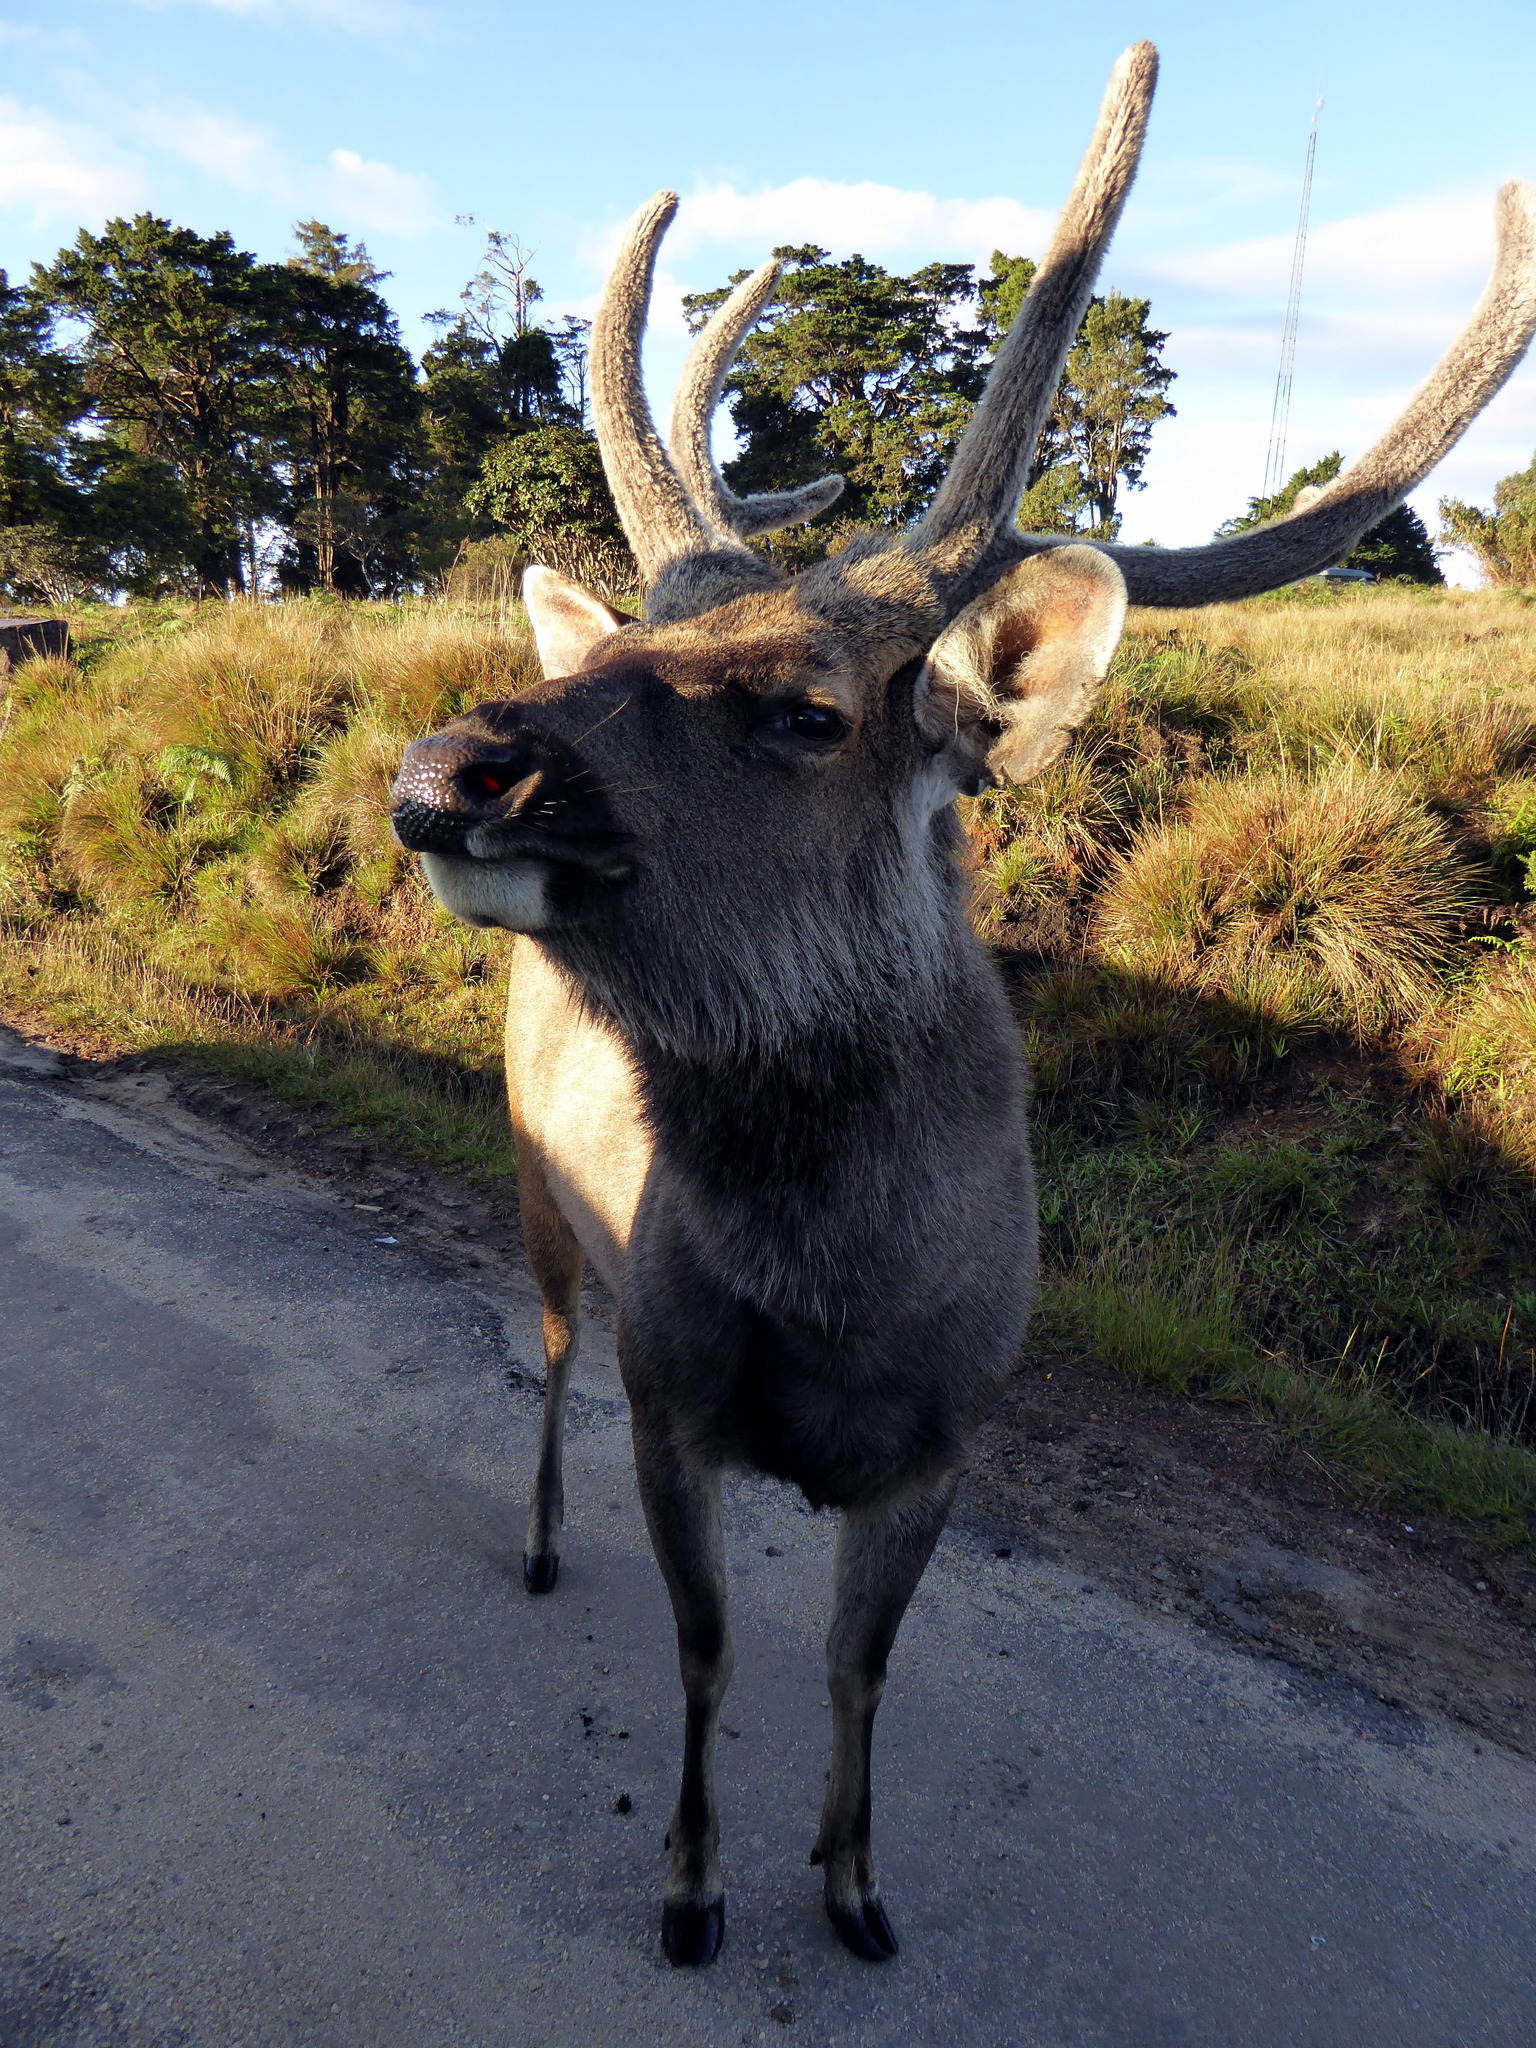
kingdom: Animalia
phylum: Chordata
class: Mammalia
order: Artiodactyla
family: Cervidae
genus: Rusa
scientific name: Rusa unicolor
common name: Sambar
